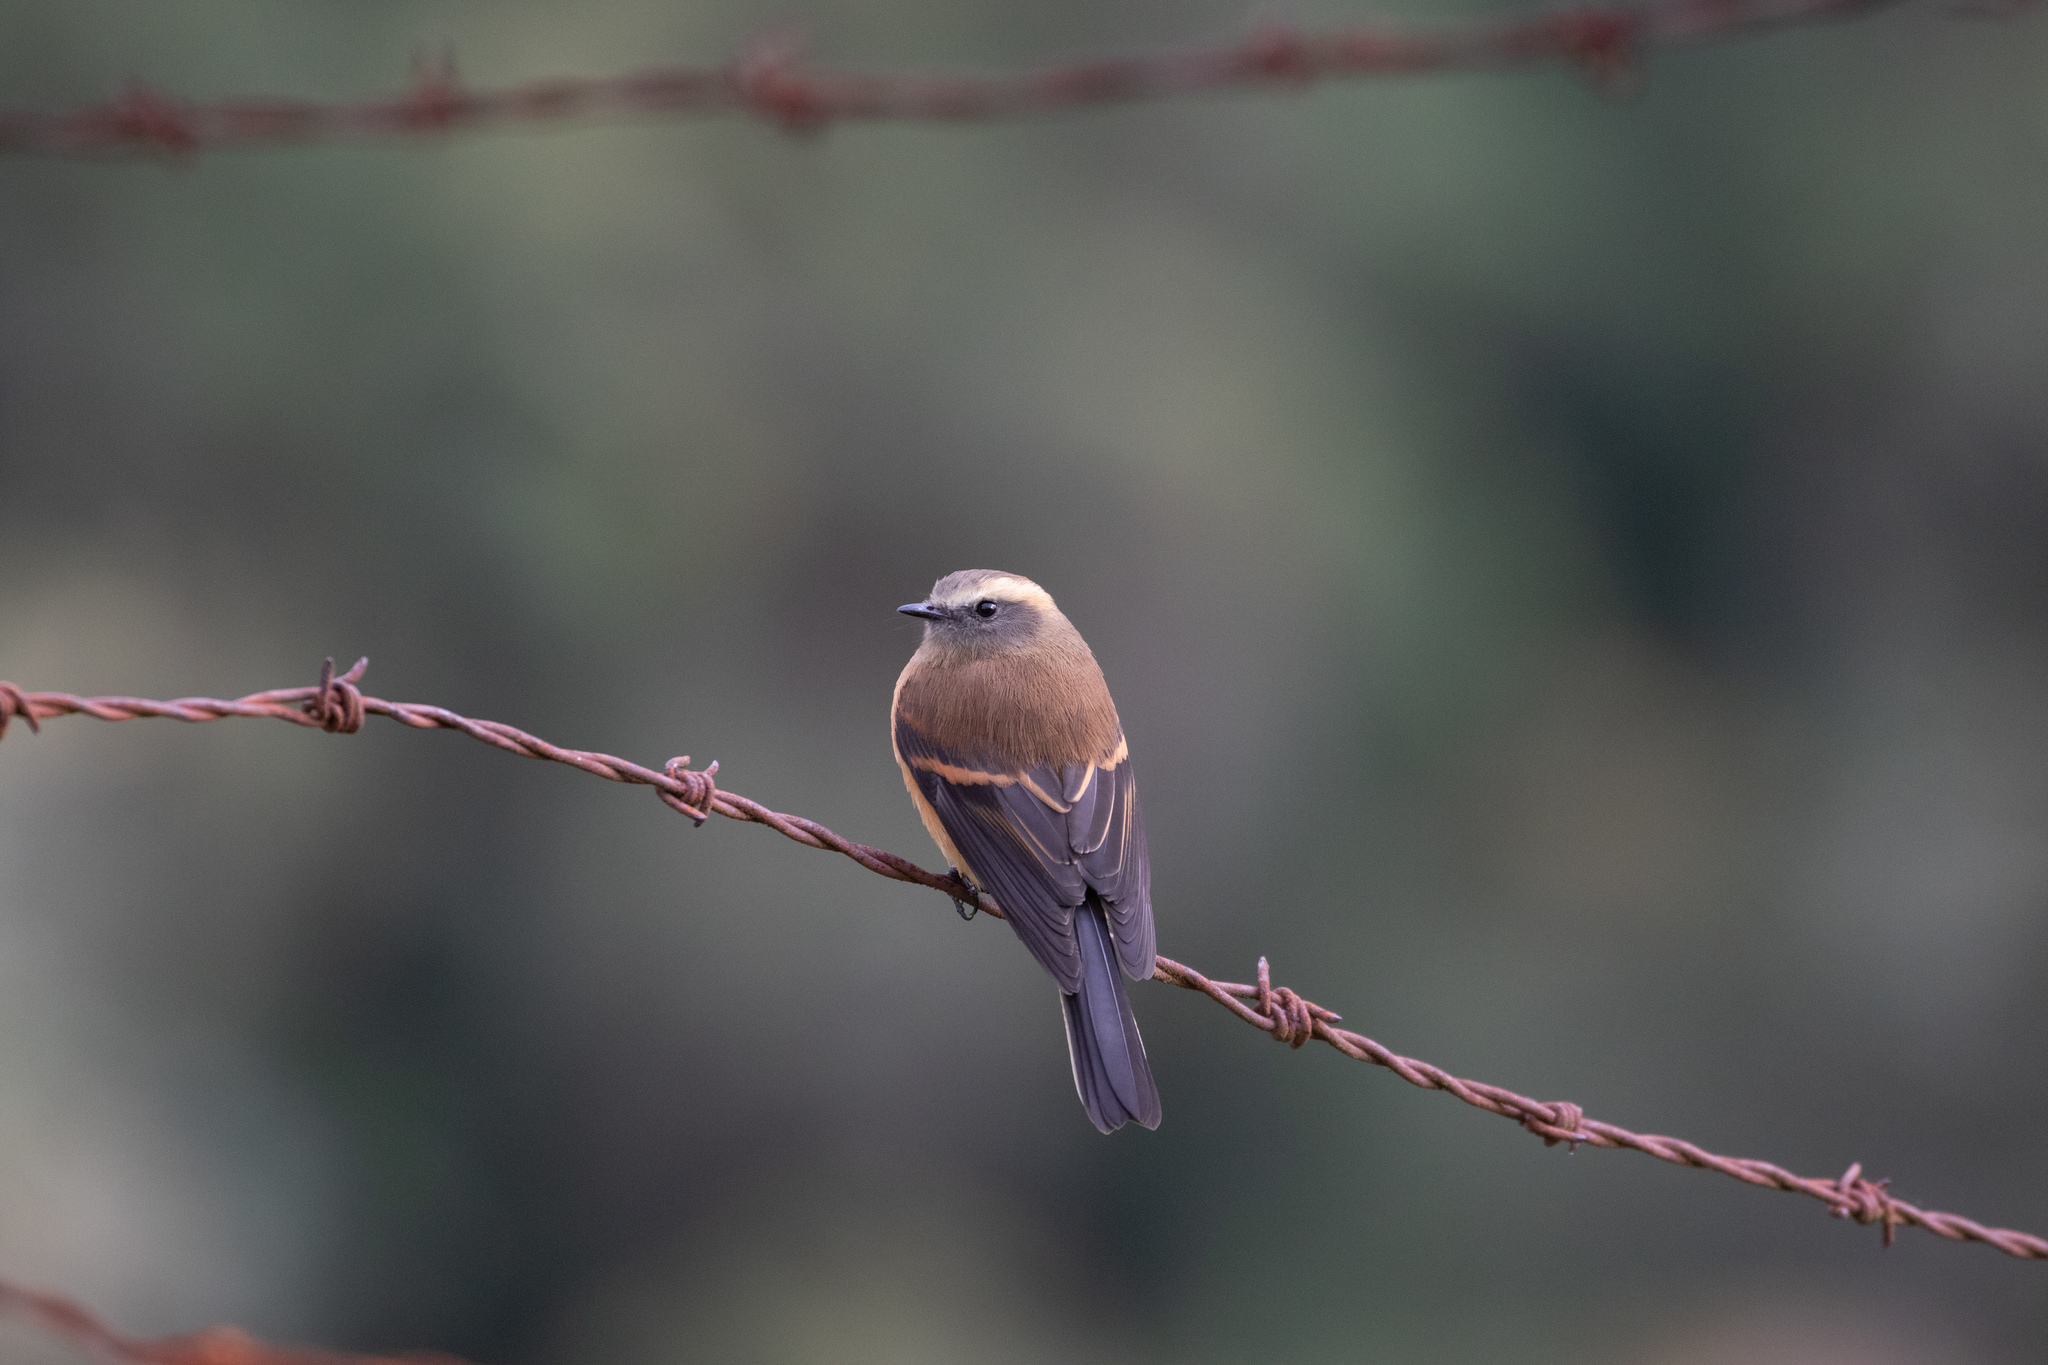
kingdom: Animalia
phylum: Chordata
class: Aves
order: Passeriformes
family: Tyrannidae
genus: Ochthoeca
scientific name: Ochthoeca fumicolor
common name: Brown-backed chat-tyrant
